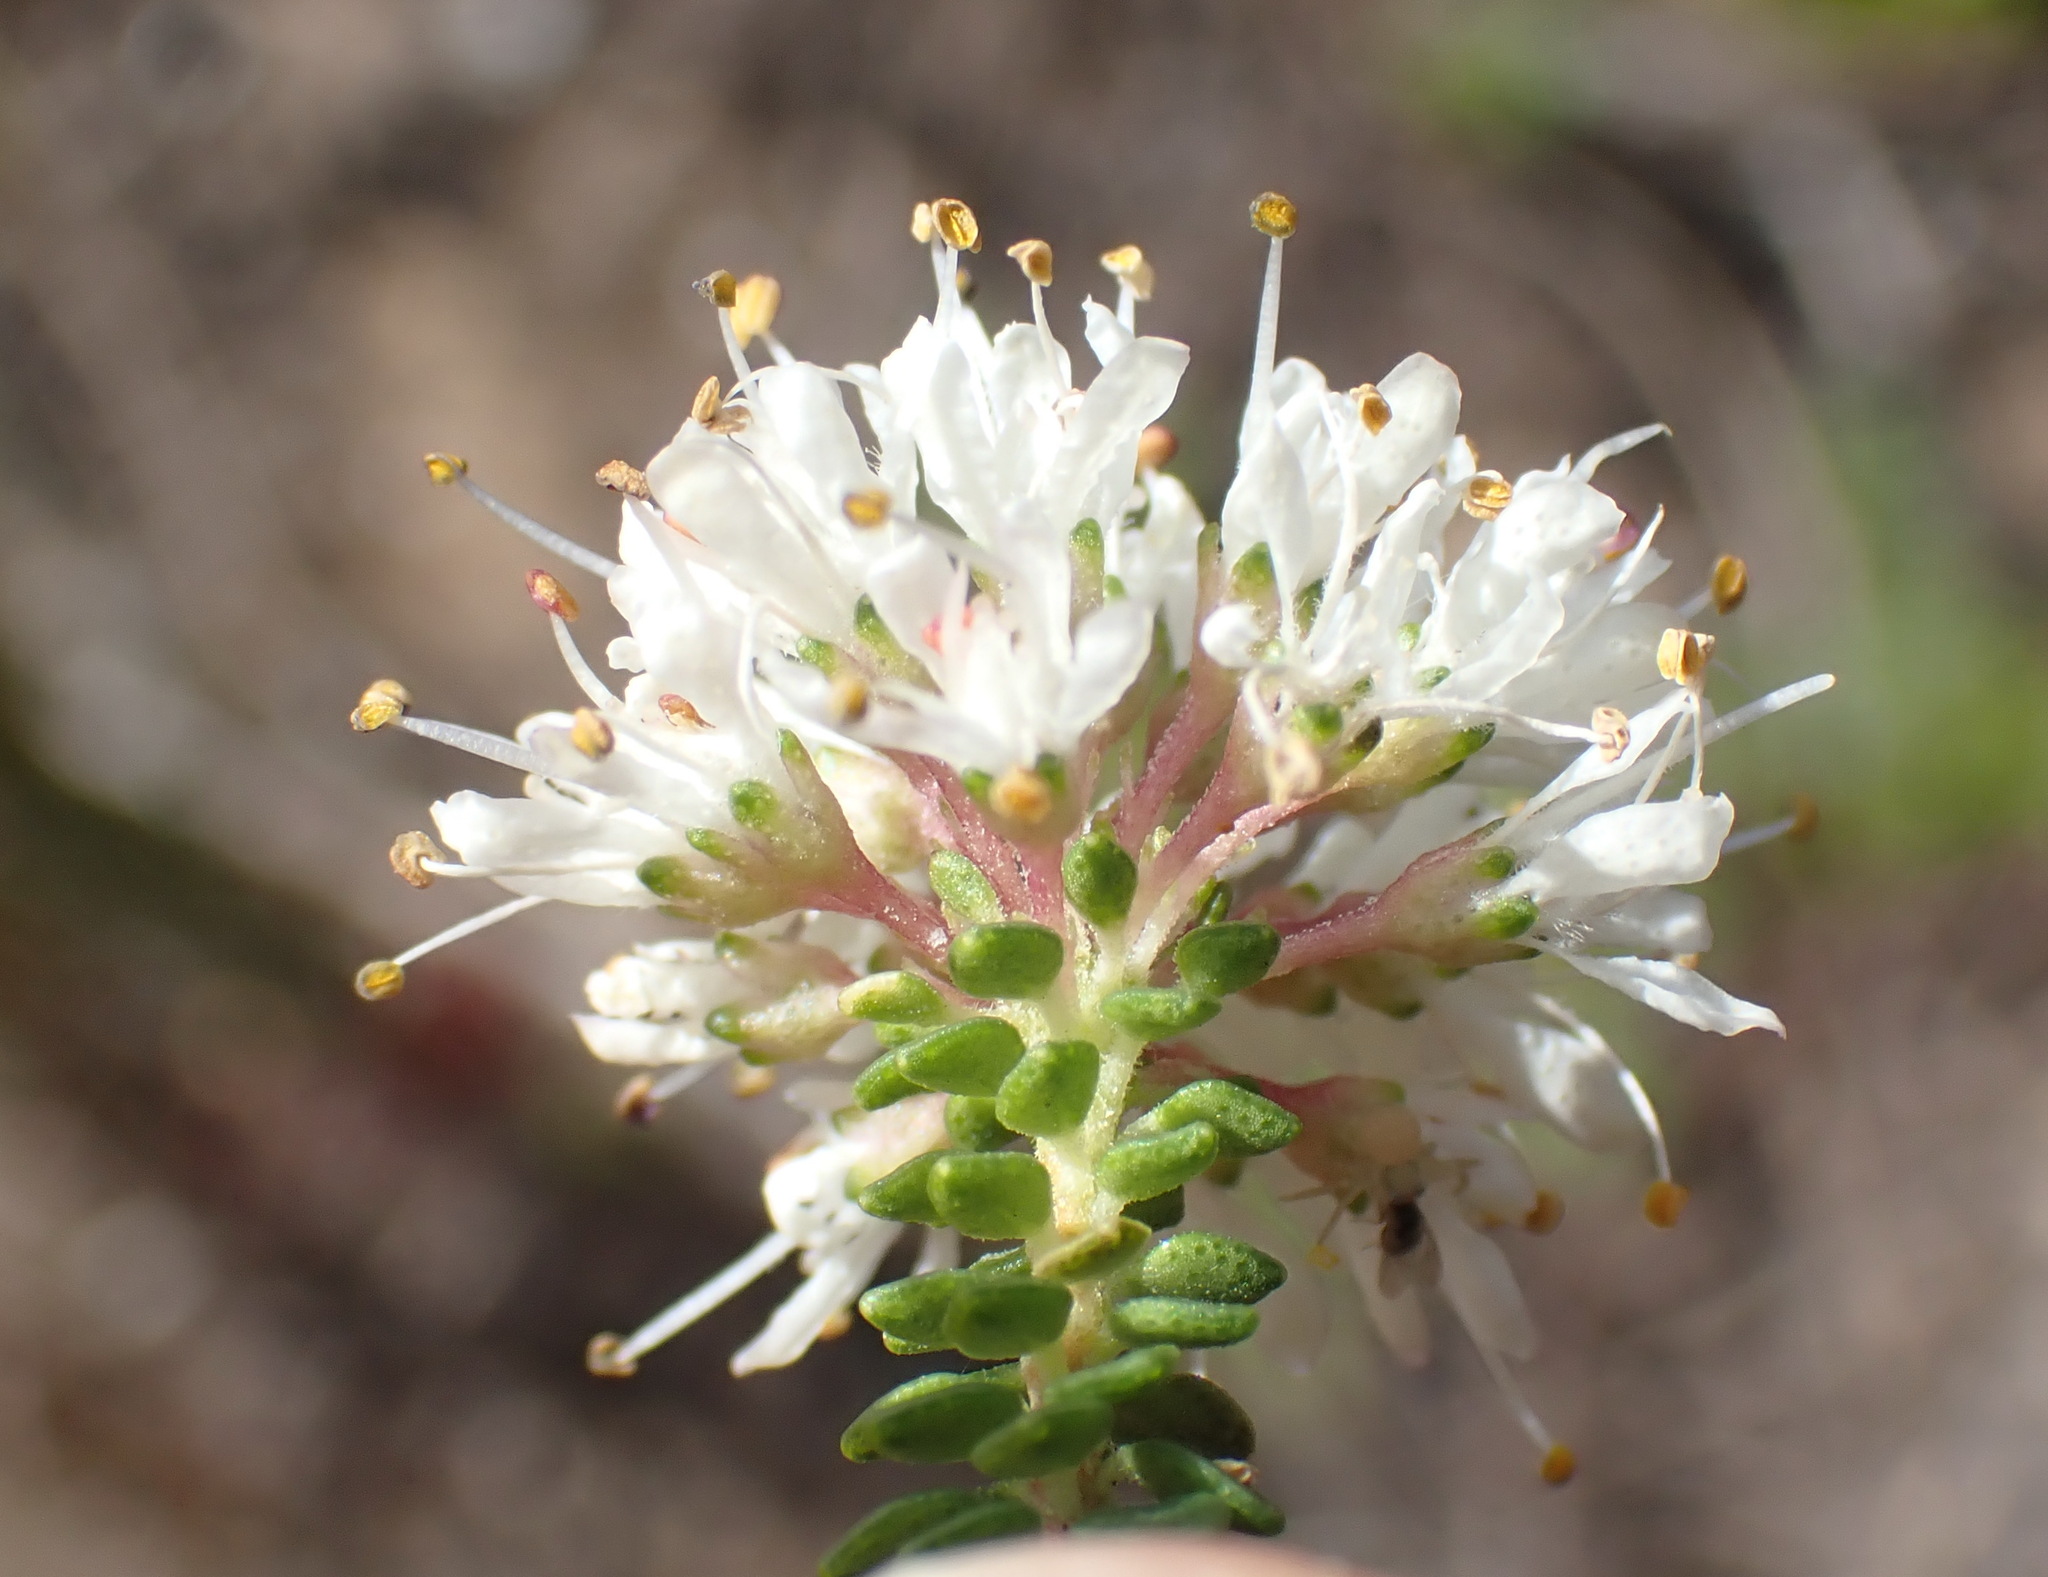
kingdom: Plantae
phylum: Tracheophyta
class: Magnoliopsida
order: Sapindales
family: Rutaceae
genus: Agathosma
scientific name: Agathosma muirii
